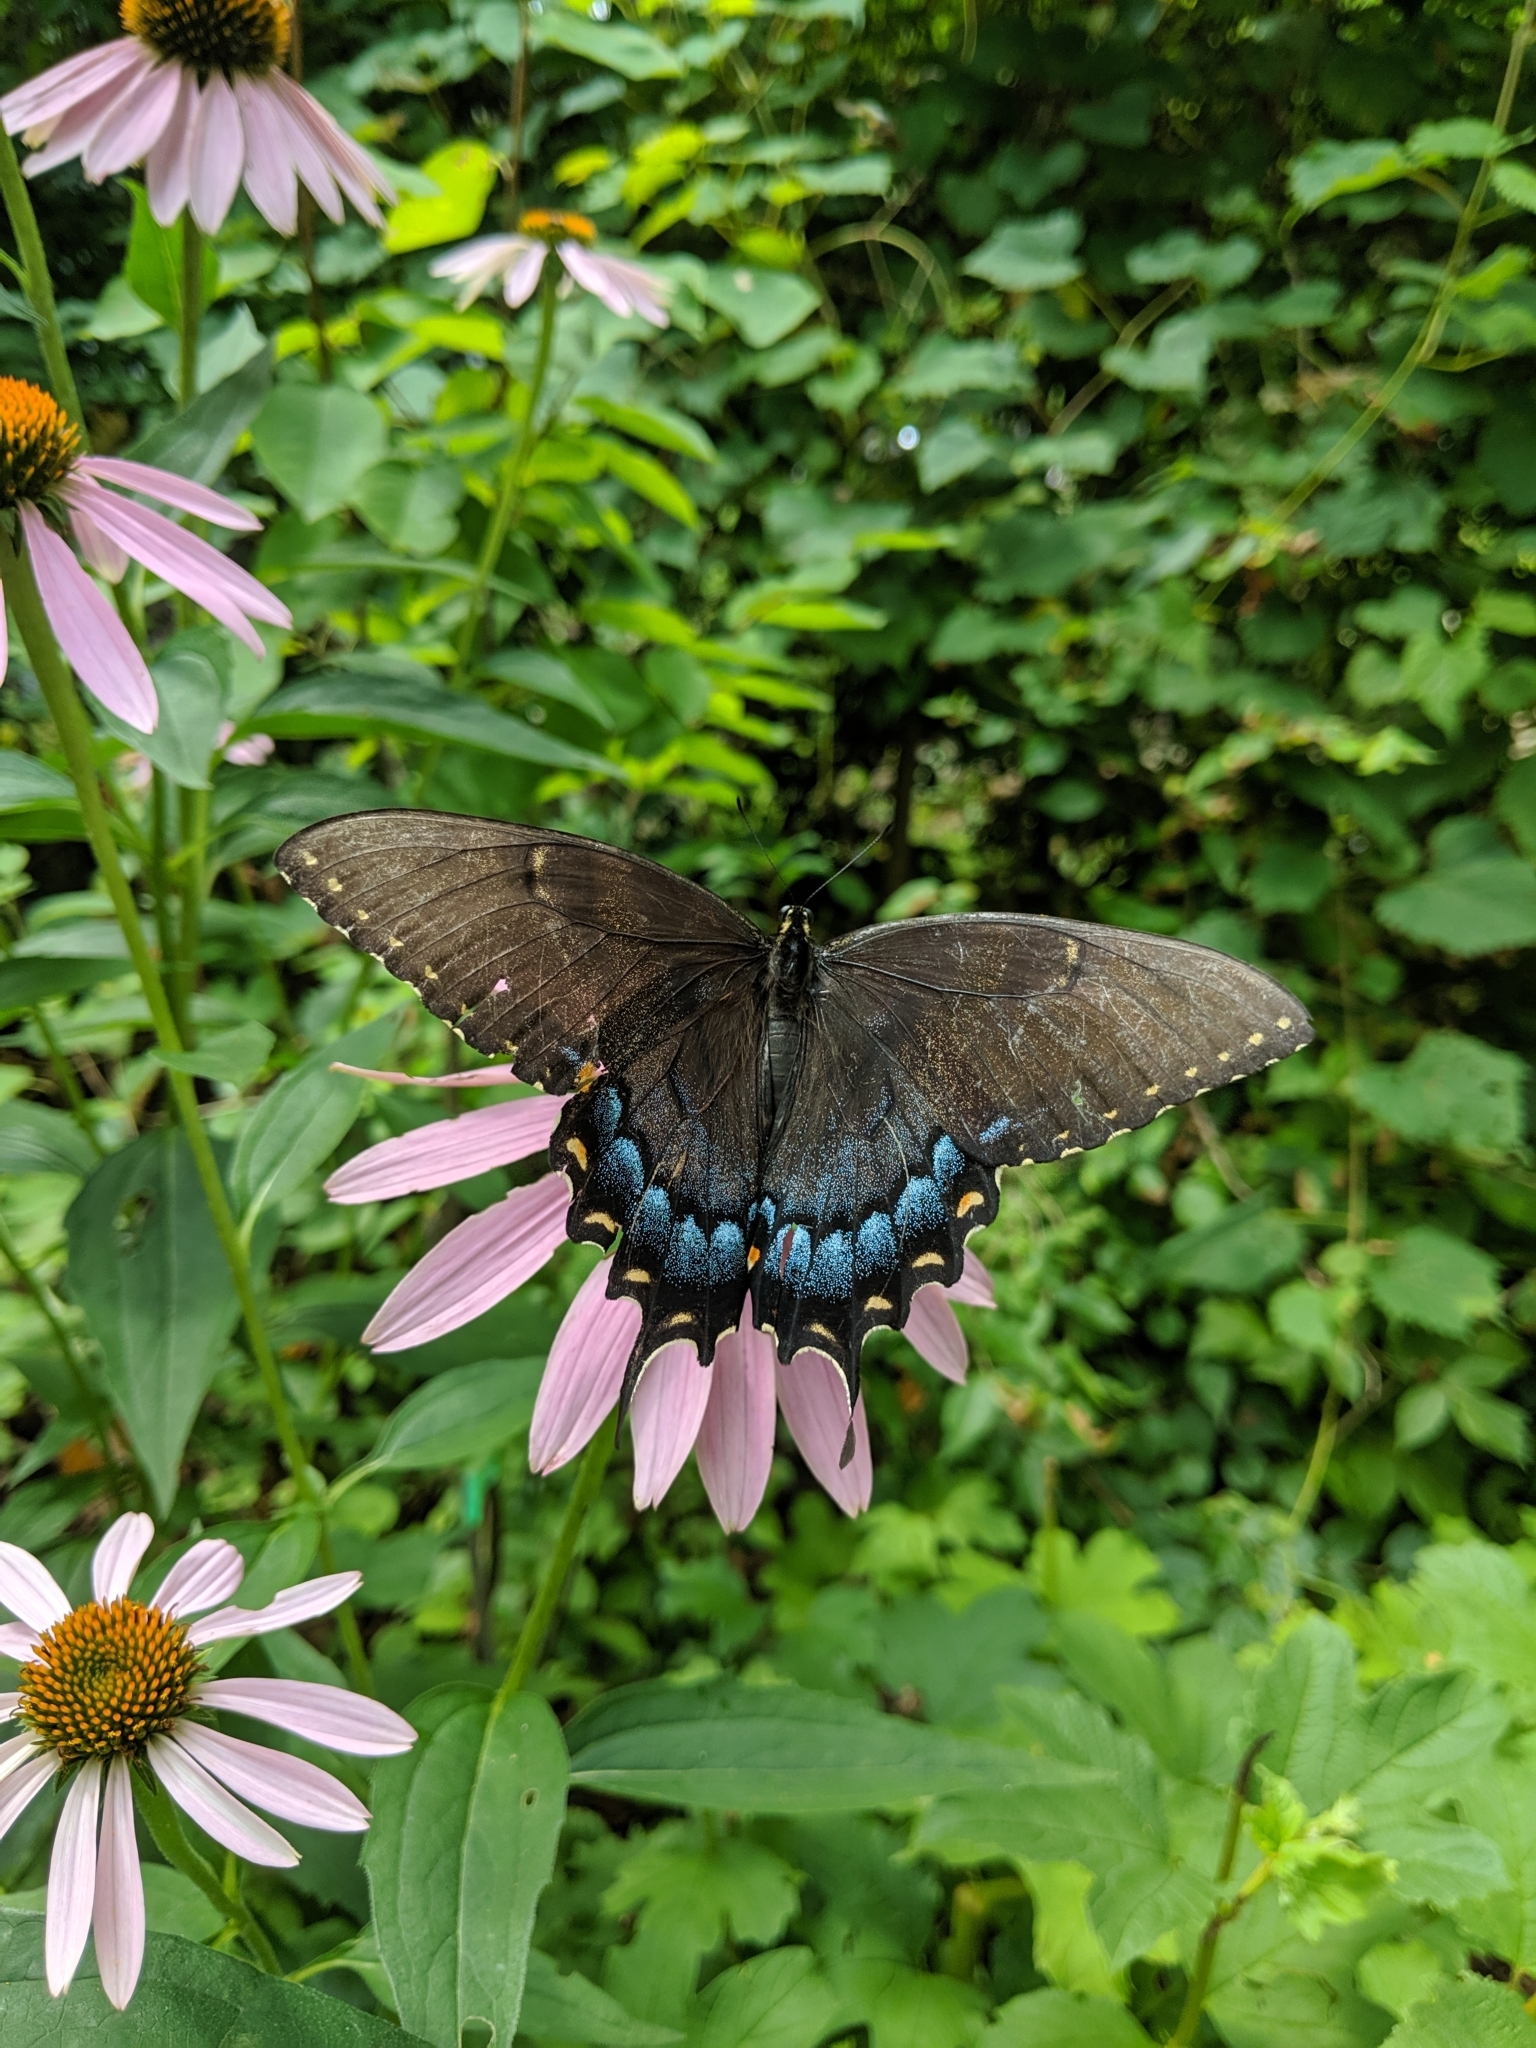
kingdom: Animalia
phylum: Arthropoda
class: Insecta
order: Lepidoptera
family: Papilionidae
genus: Papilio
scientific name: Papilio glaucus
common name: Tiger swallowtail
